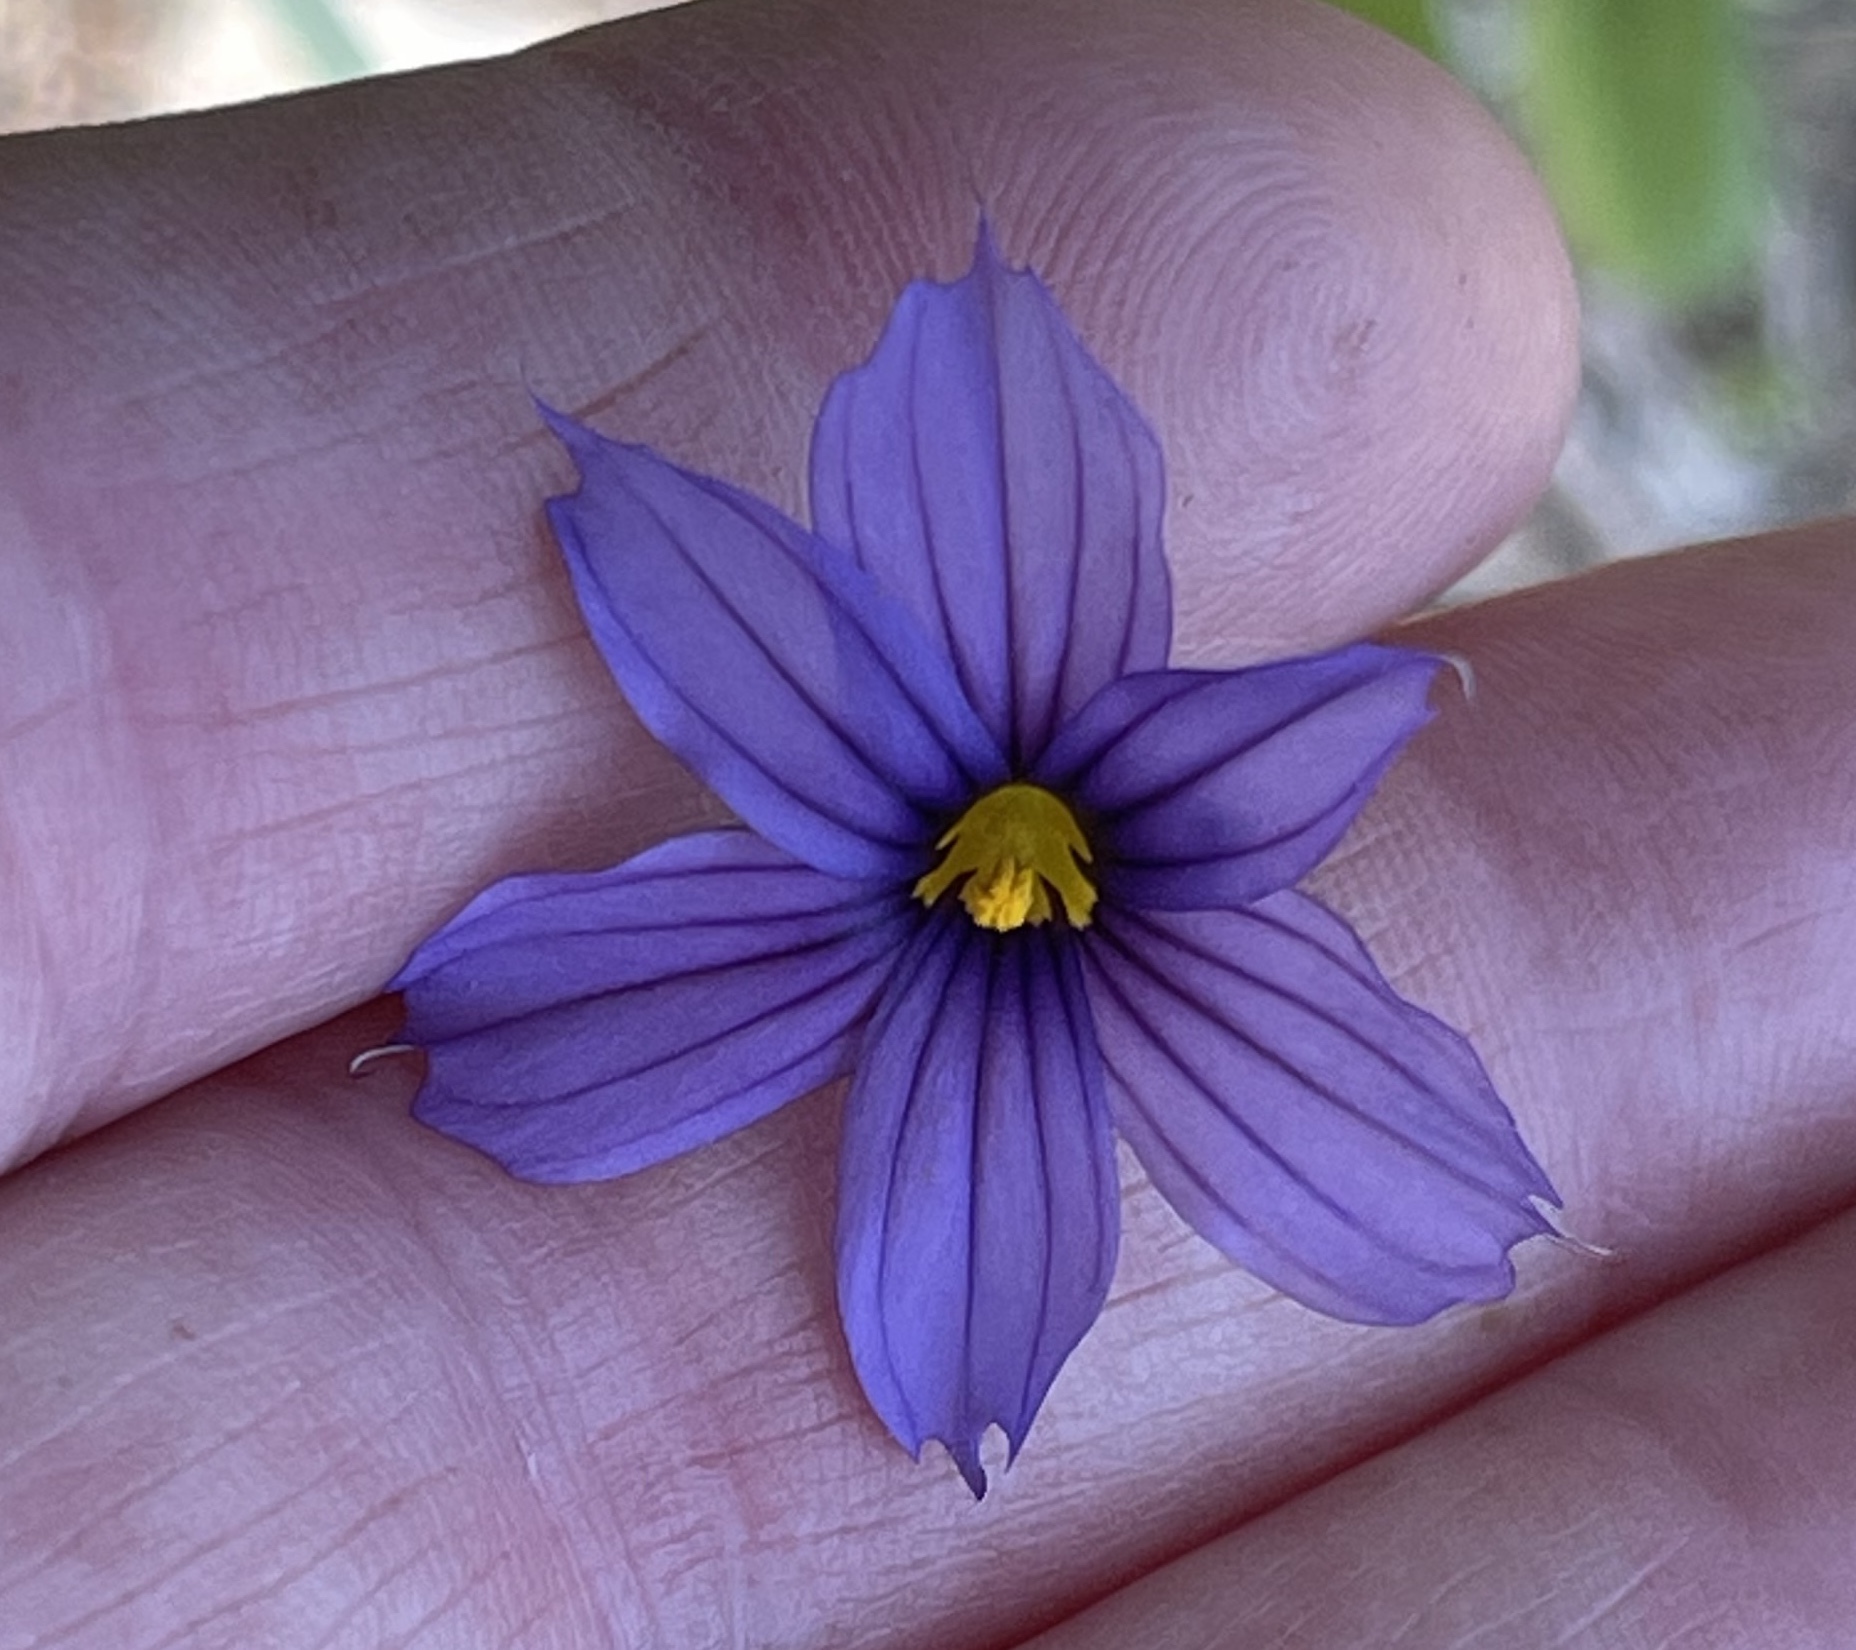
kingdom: Plantae
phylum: Tracheophyta
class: Liliopsida
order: Asparagales
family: Iridaceae
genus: Sisyrinchium
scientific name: Sisyrinchium bellum
